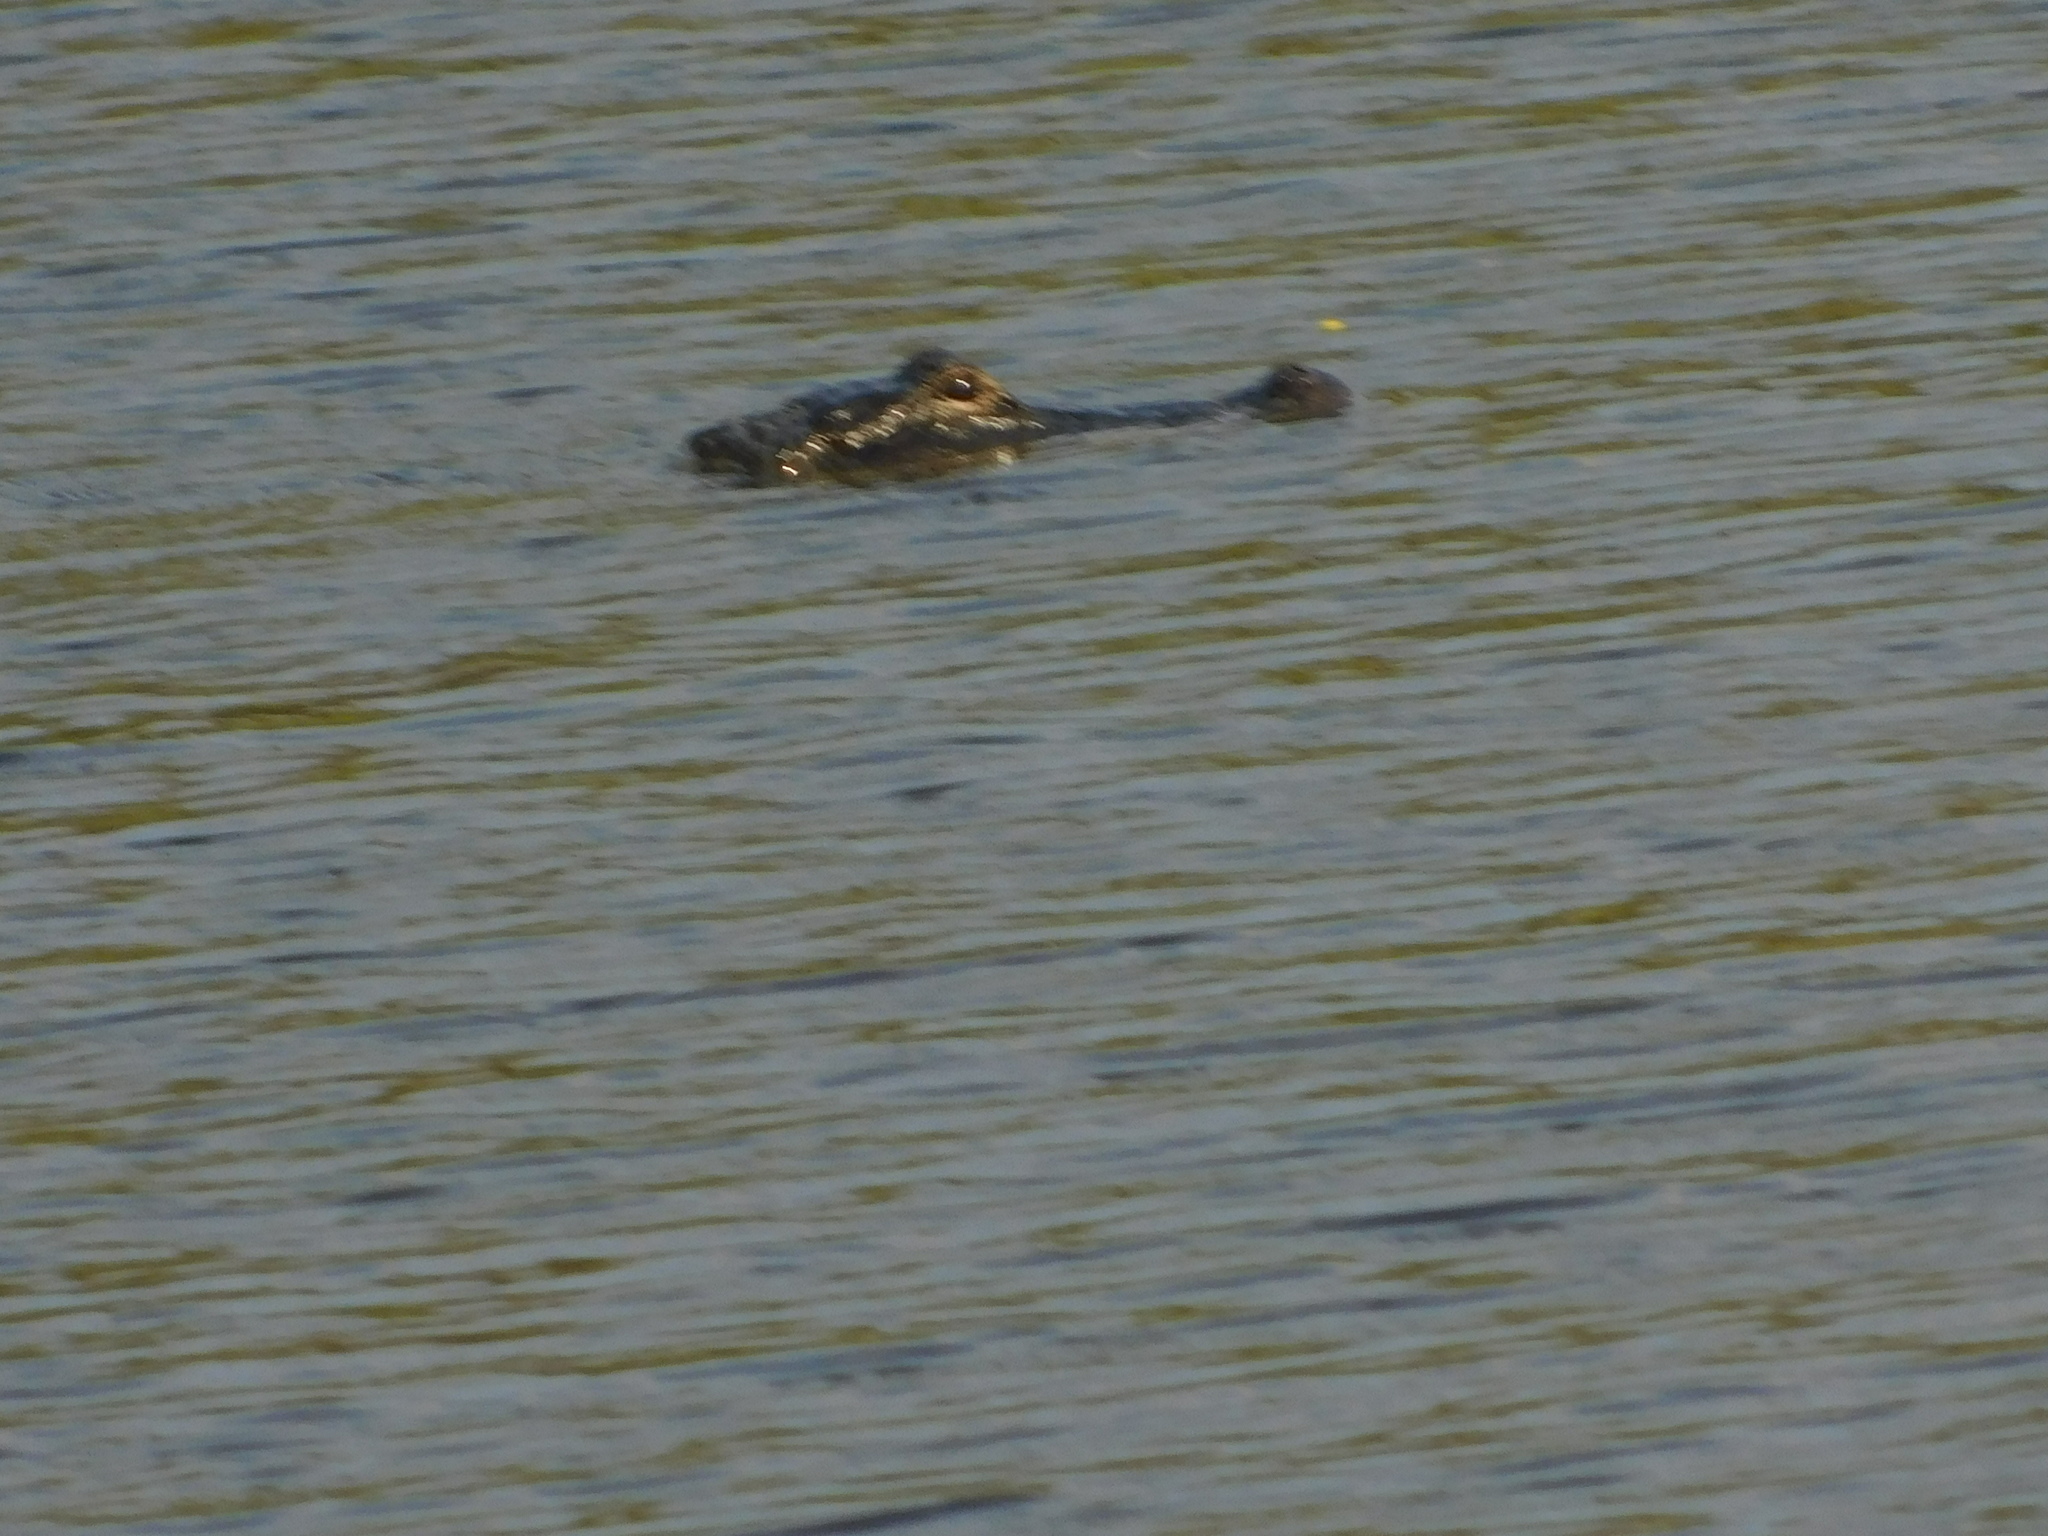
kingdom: Animalia
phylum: Chordata
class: Crocodylia
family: Alligatoridae
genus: Alligator
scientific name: Alligator mississippiensis
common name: American alligator
